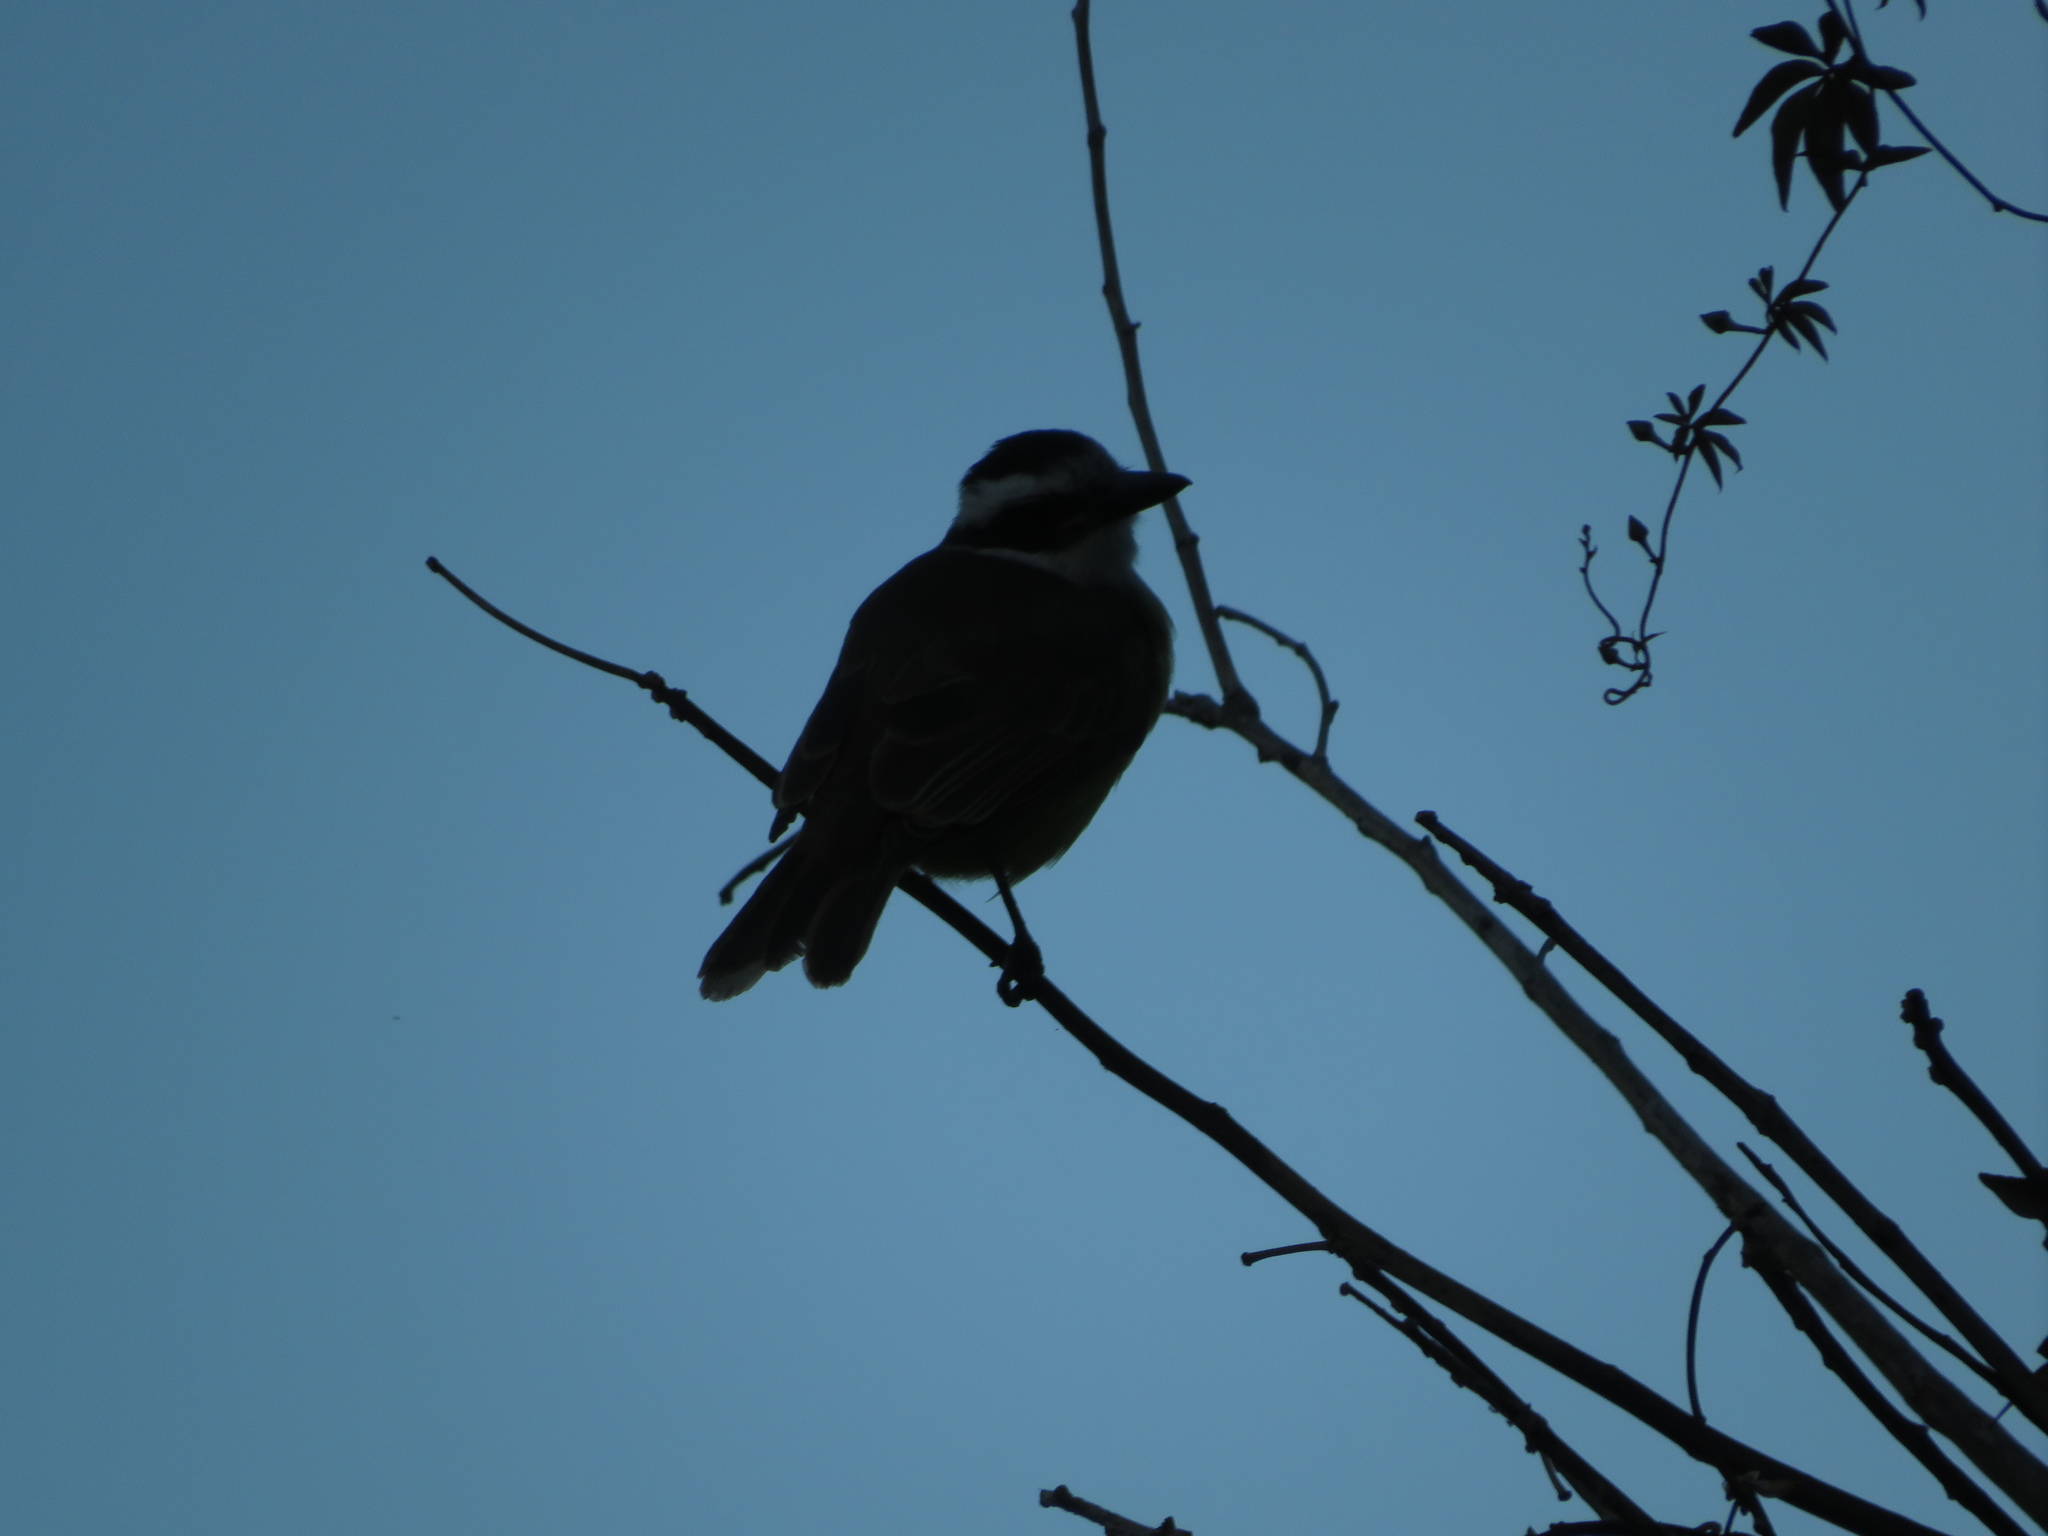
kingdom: Animalia
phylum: Chordata
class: Aves
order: Passeriformes
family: Tyrannidae
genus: Pitangus
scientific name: Pitangus sulphuratus
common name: Great kiskadee
